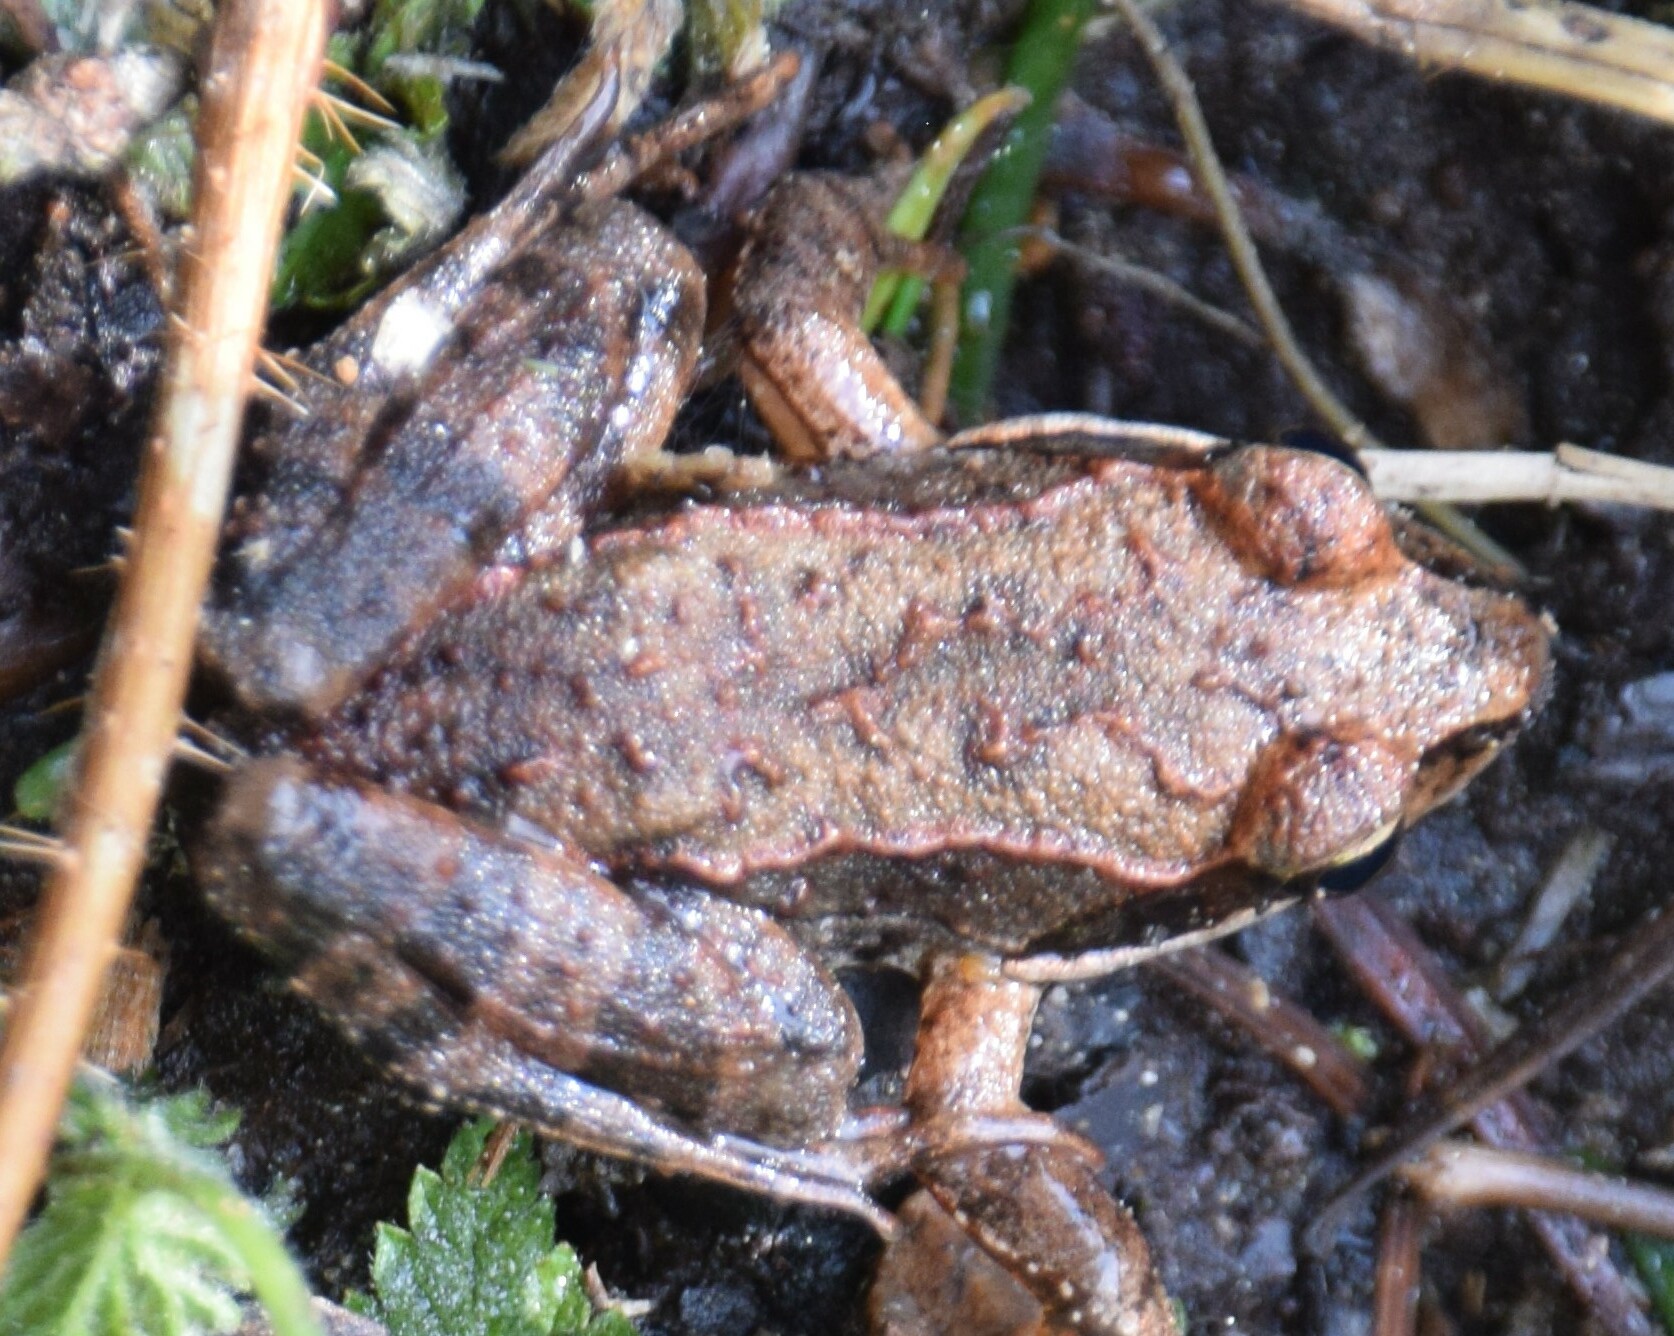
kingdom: Animalia
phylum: Chordata
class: Amphibia
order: Anura
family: Ranidae
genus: Lithobates
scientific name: Lithobates sylvaticus
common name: Wood frog
